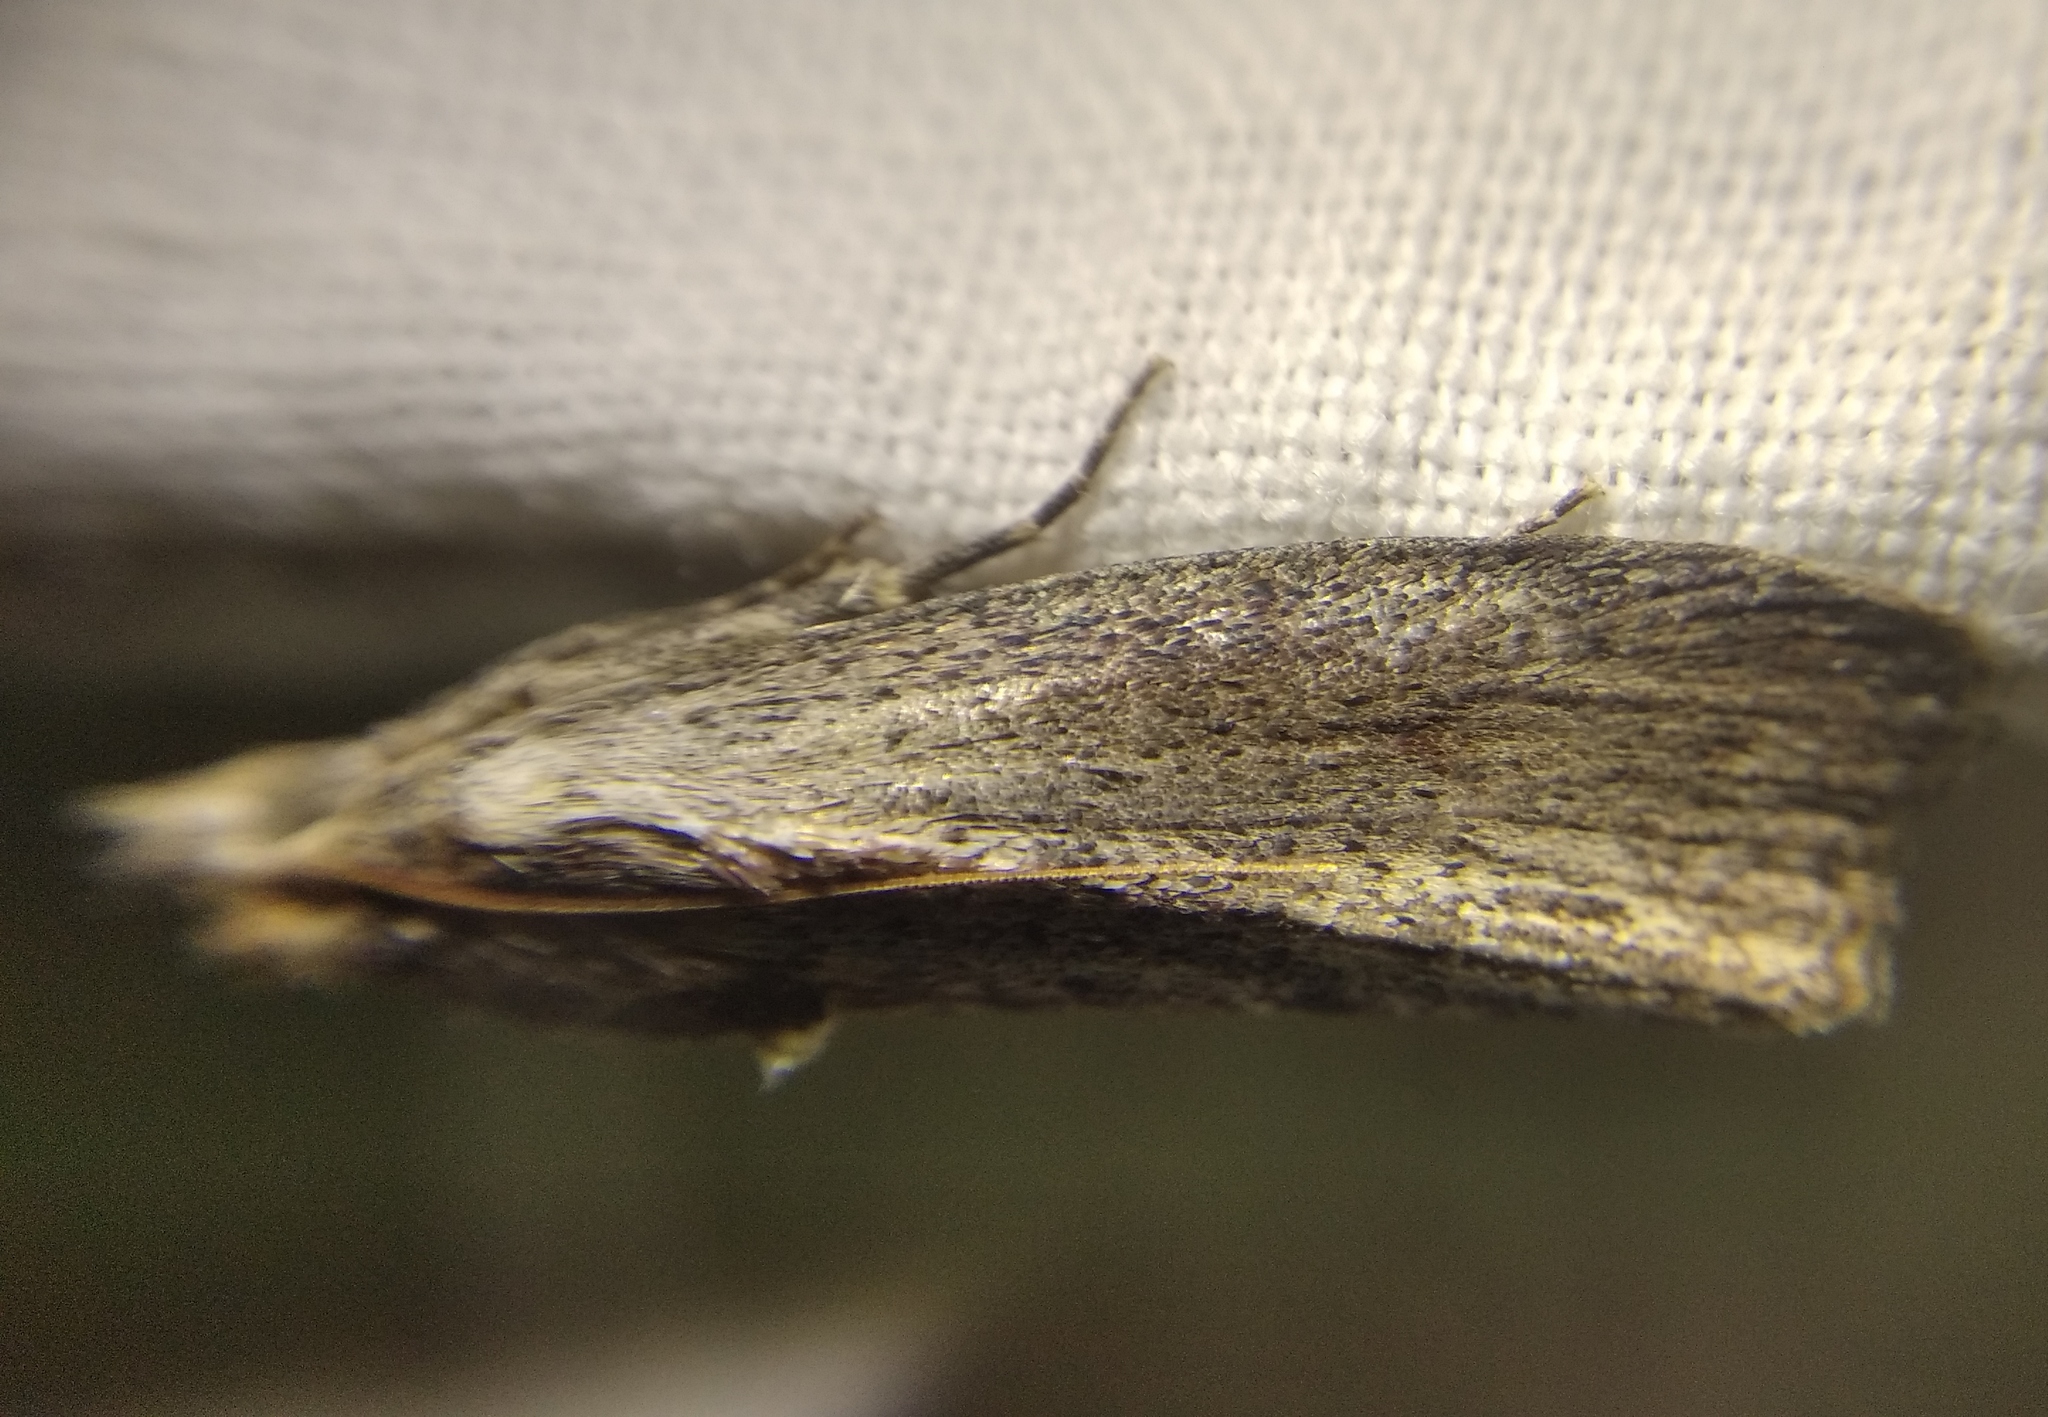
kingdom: Animalia
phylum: Arthropoda
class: Insecta
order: Lepidoptera
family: Pyralidae
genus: Galleria
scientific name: Galleria mellonella
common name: Greater wax moth
